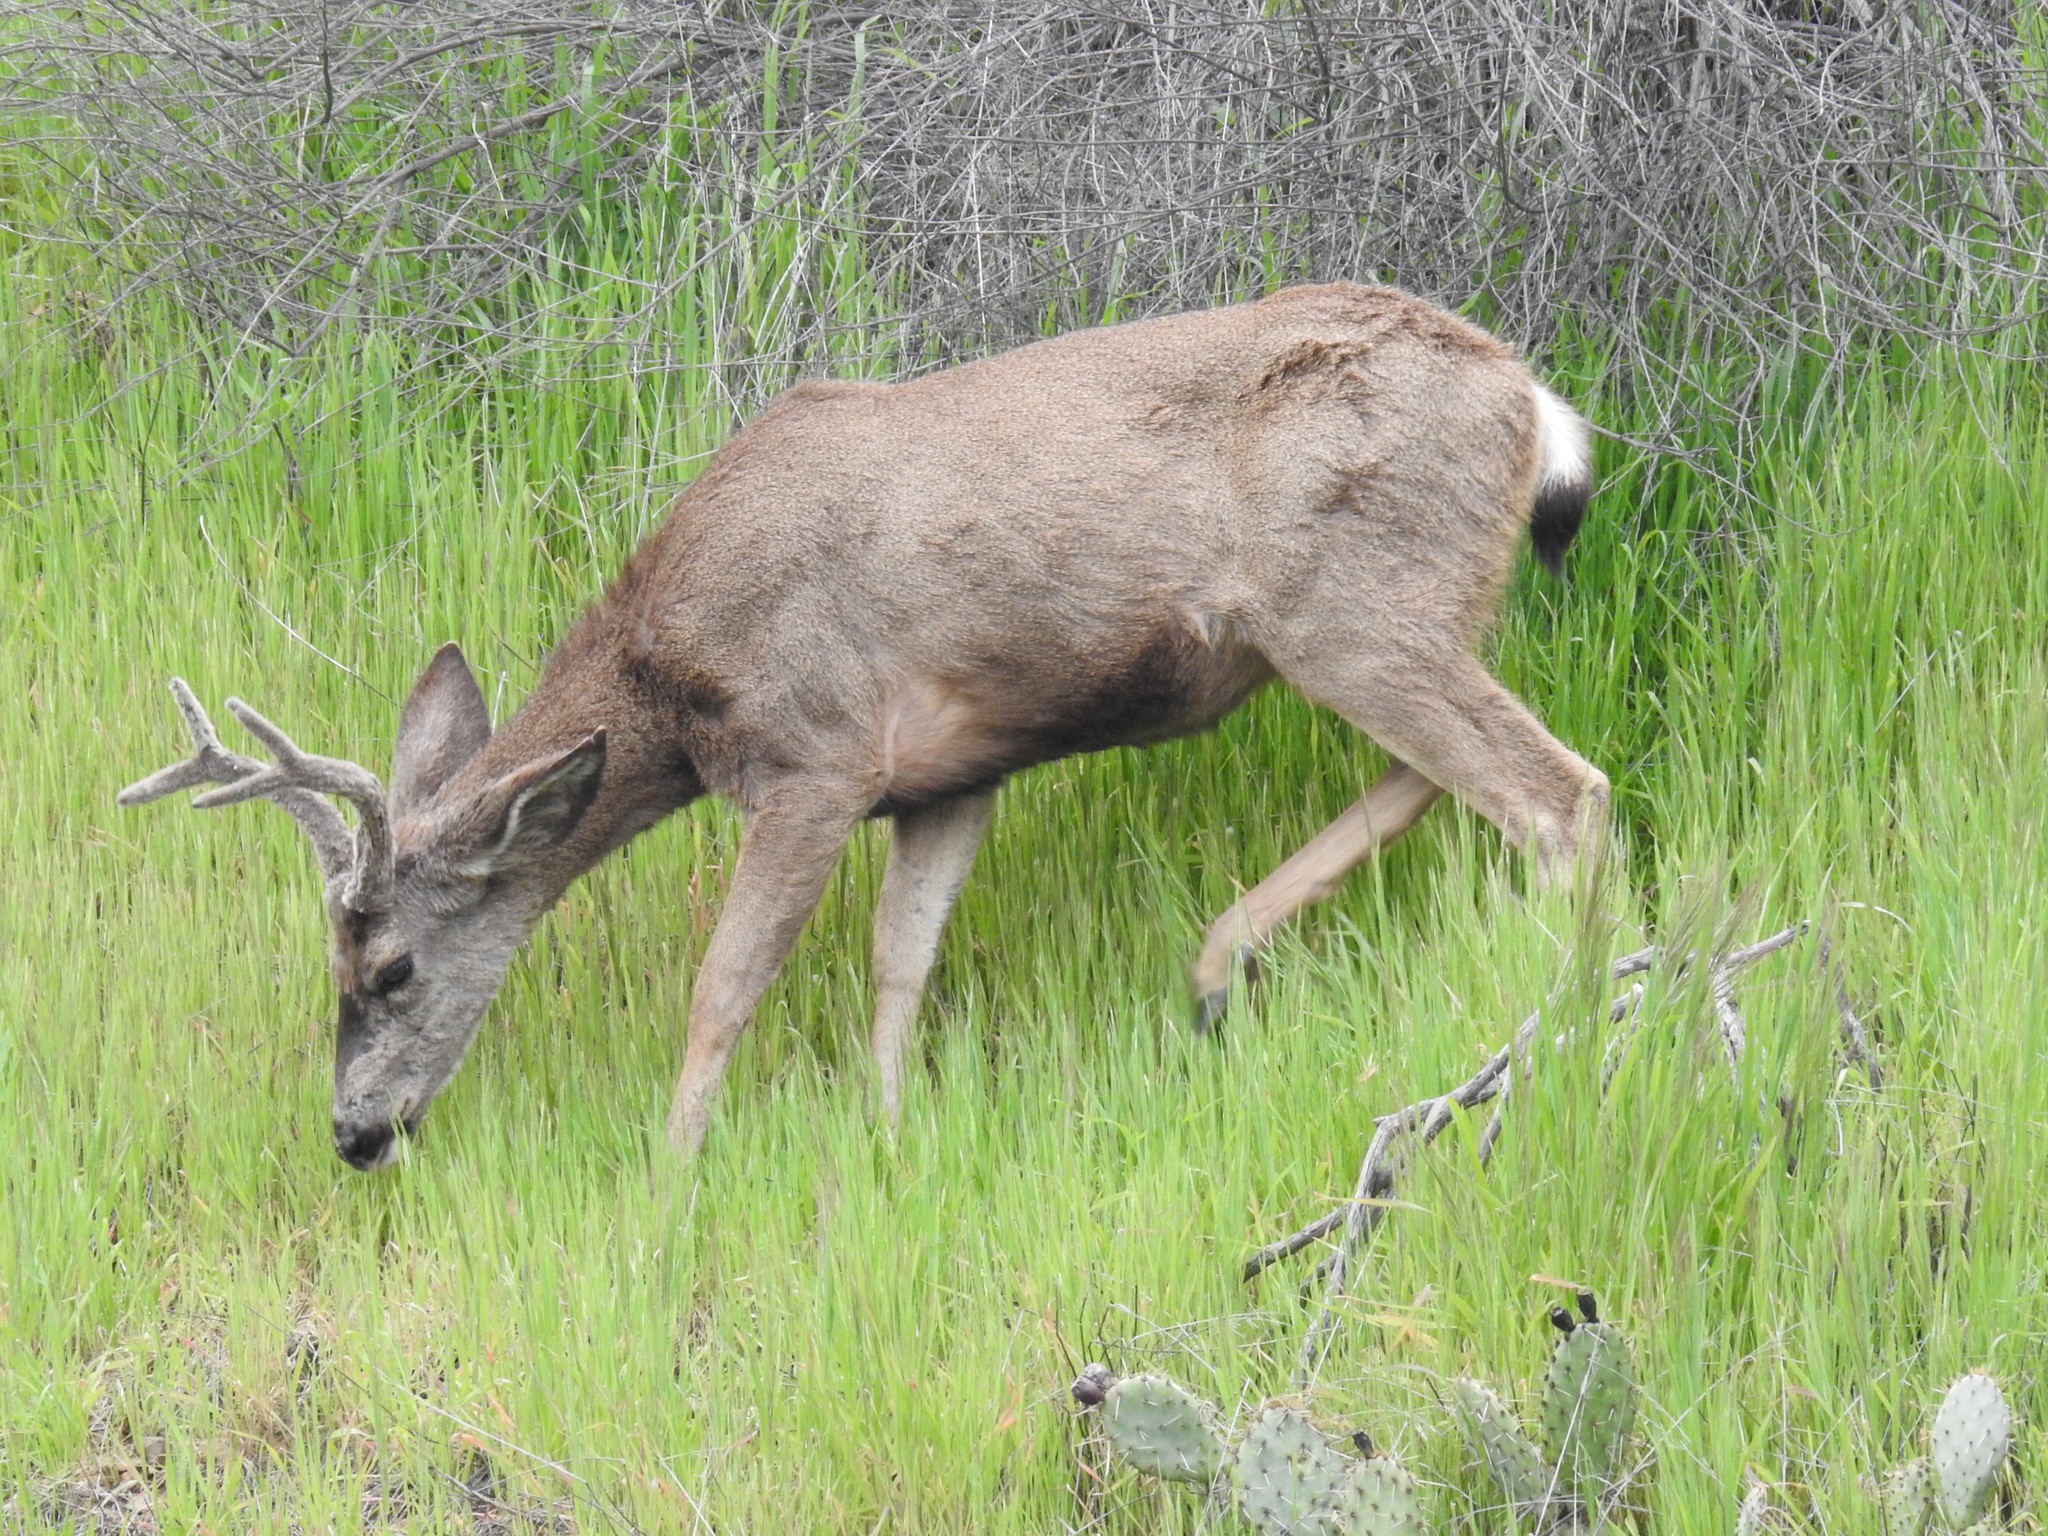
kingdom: Animalia
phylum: Chordata
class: Mammalia
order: Artiodactyla
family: Cervidae
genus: Odocoileus
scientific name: Odocoileus hemionus
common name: Mule deer
